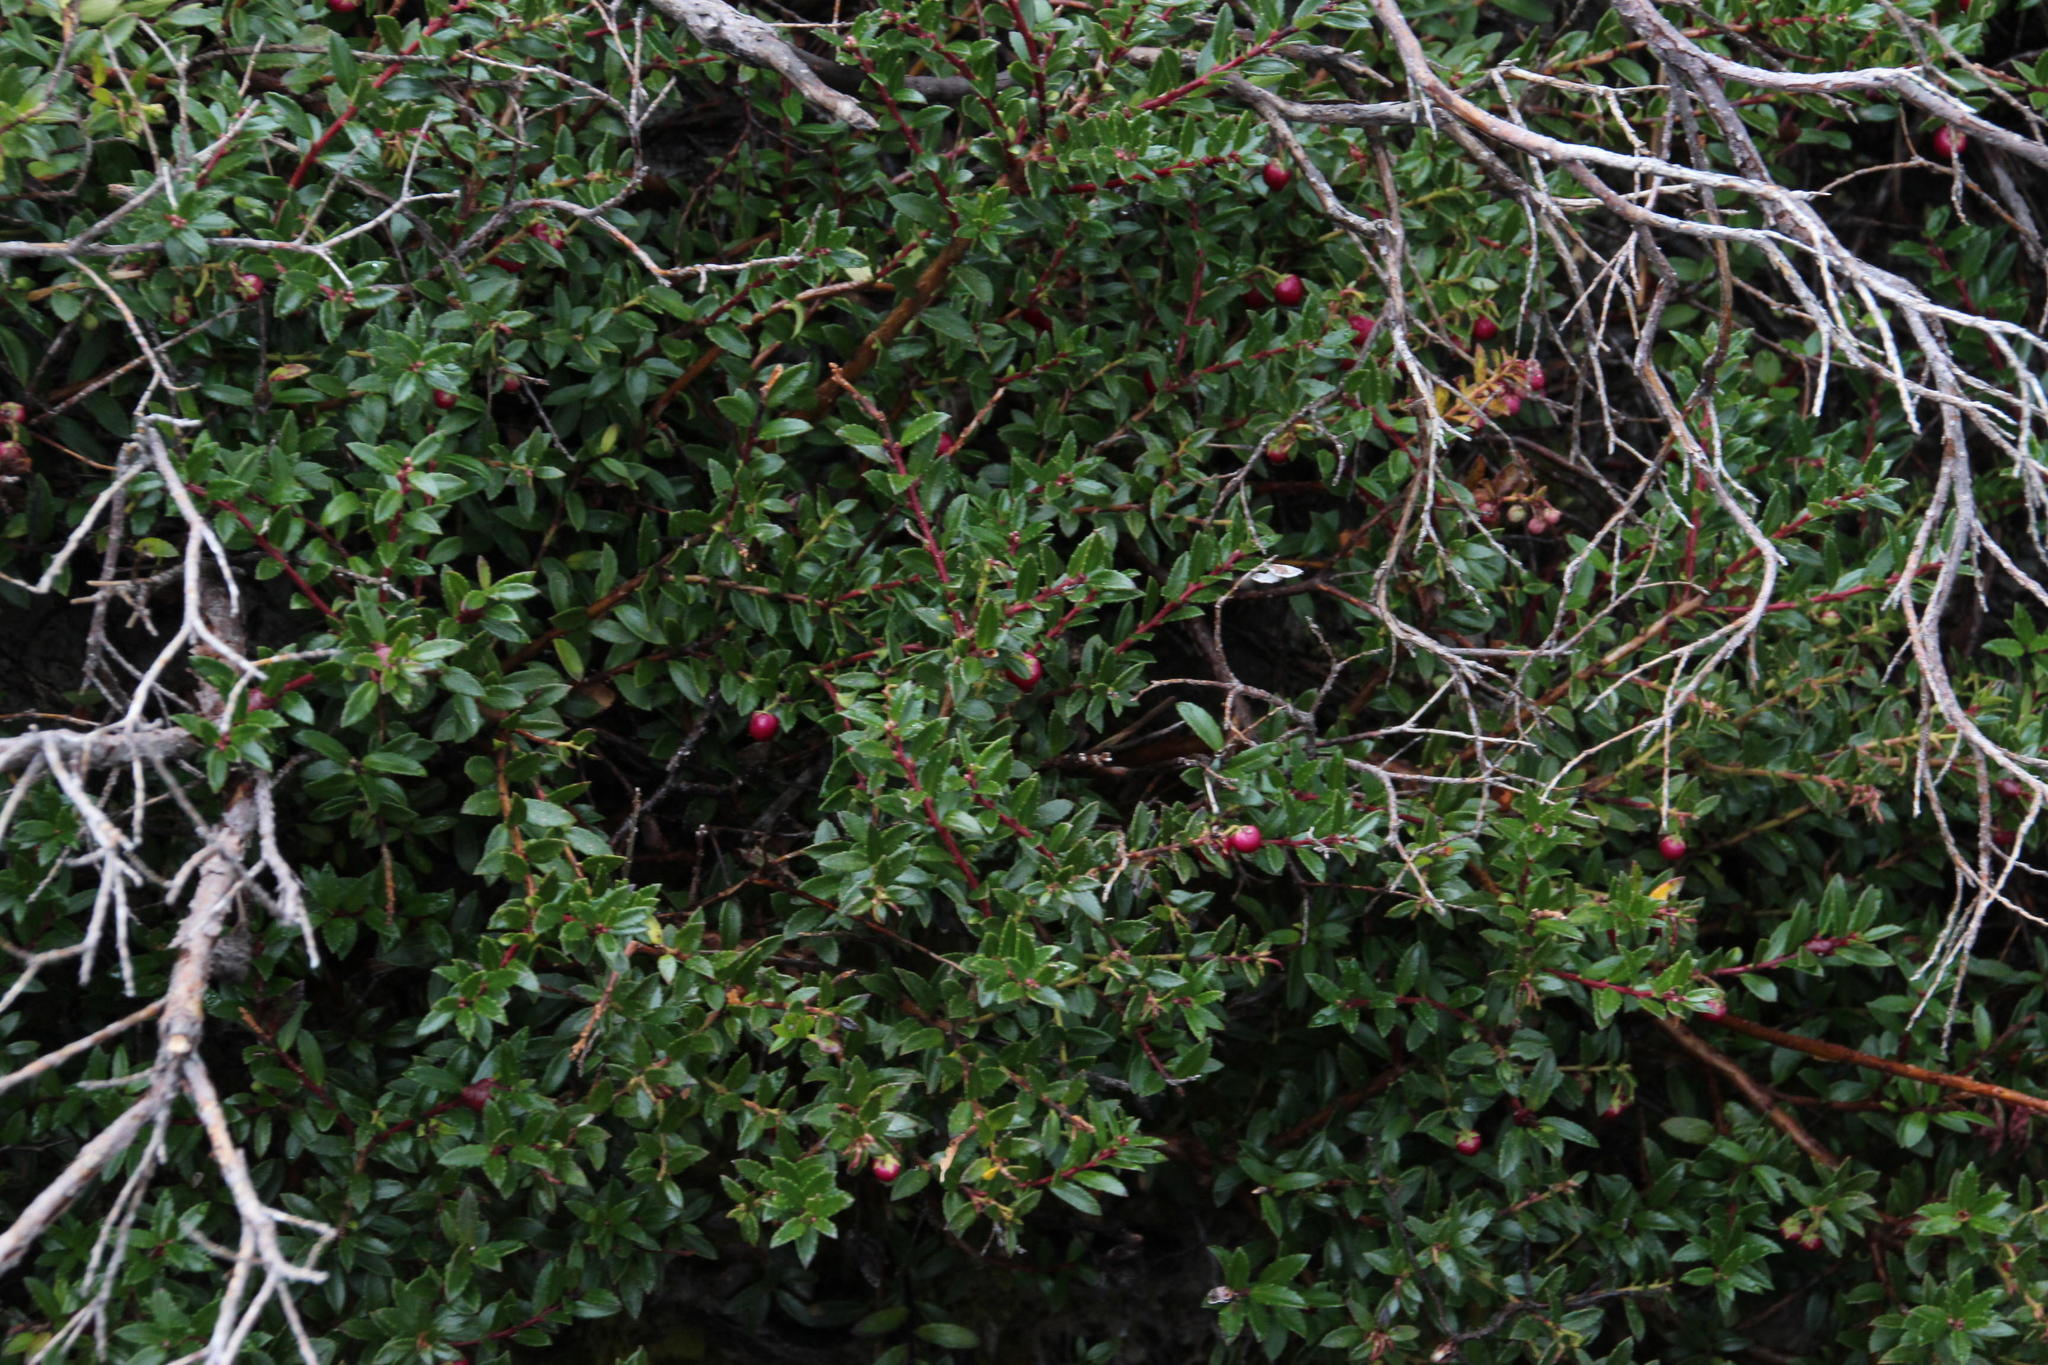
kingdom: Plantae
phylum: Tracheophyta
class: Magnoliopsida
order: Ericales
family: Ericaceae
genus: Gaultheria
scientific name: Gaultheria poeppigii
